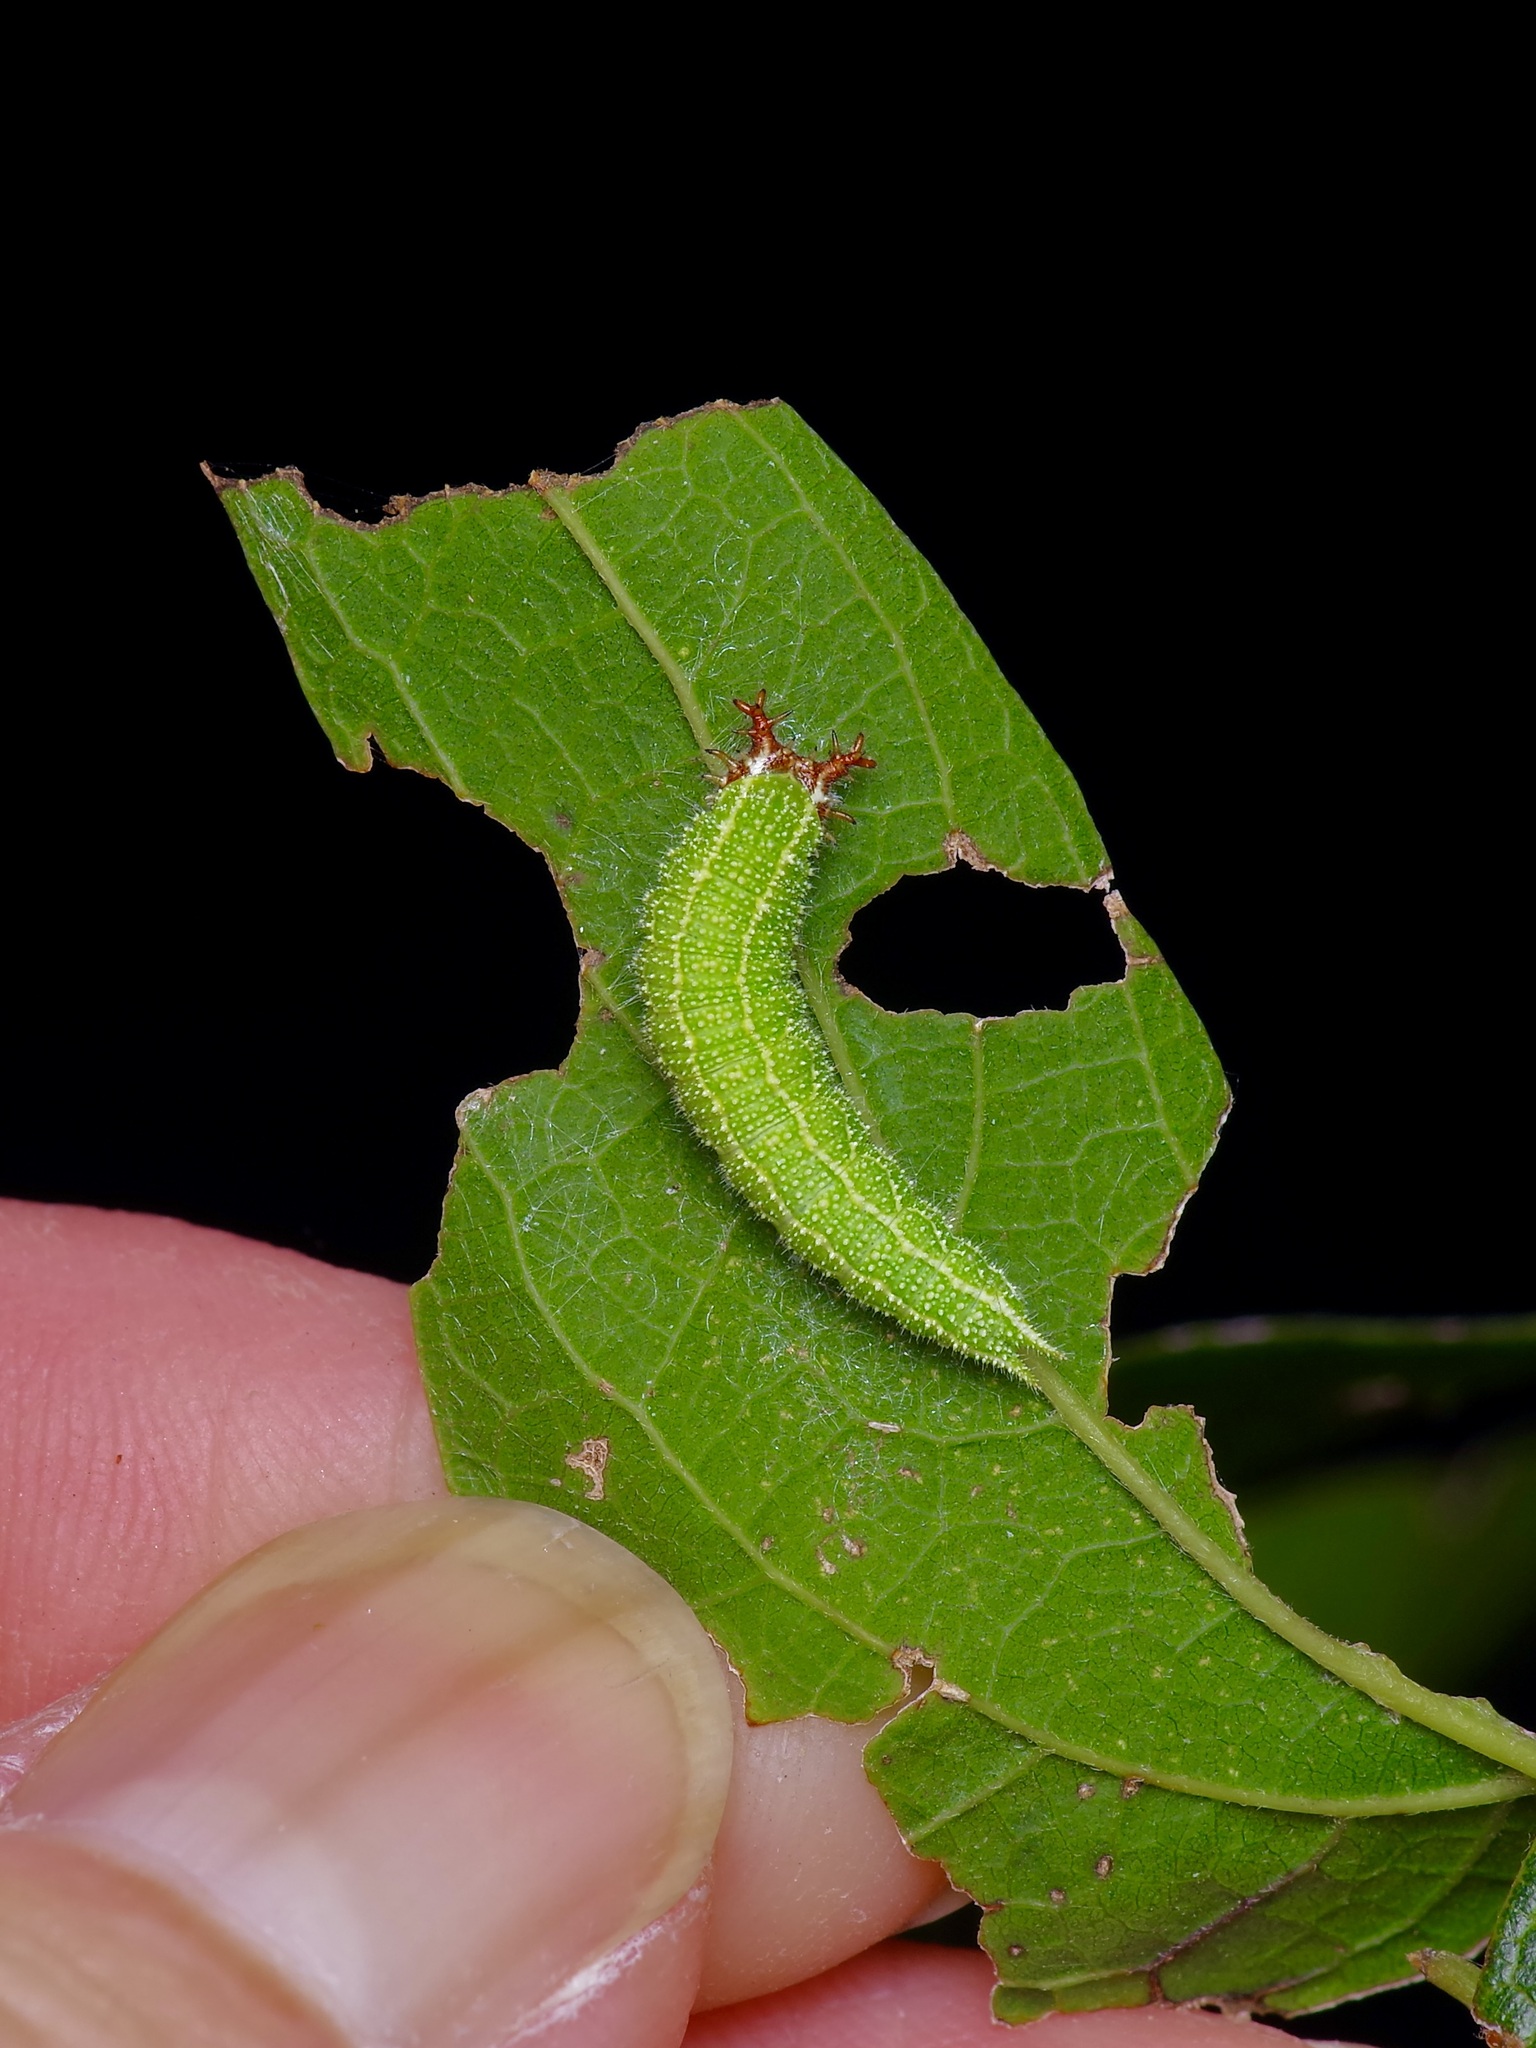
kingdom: Animalia
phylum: Arthropoda
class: Insecta
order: Lepidoptera
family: Nymphalidae
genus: Asterocampa
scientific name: Asterocampa celtis
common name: Hackberry emperor
